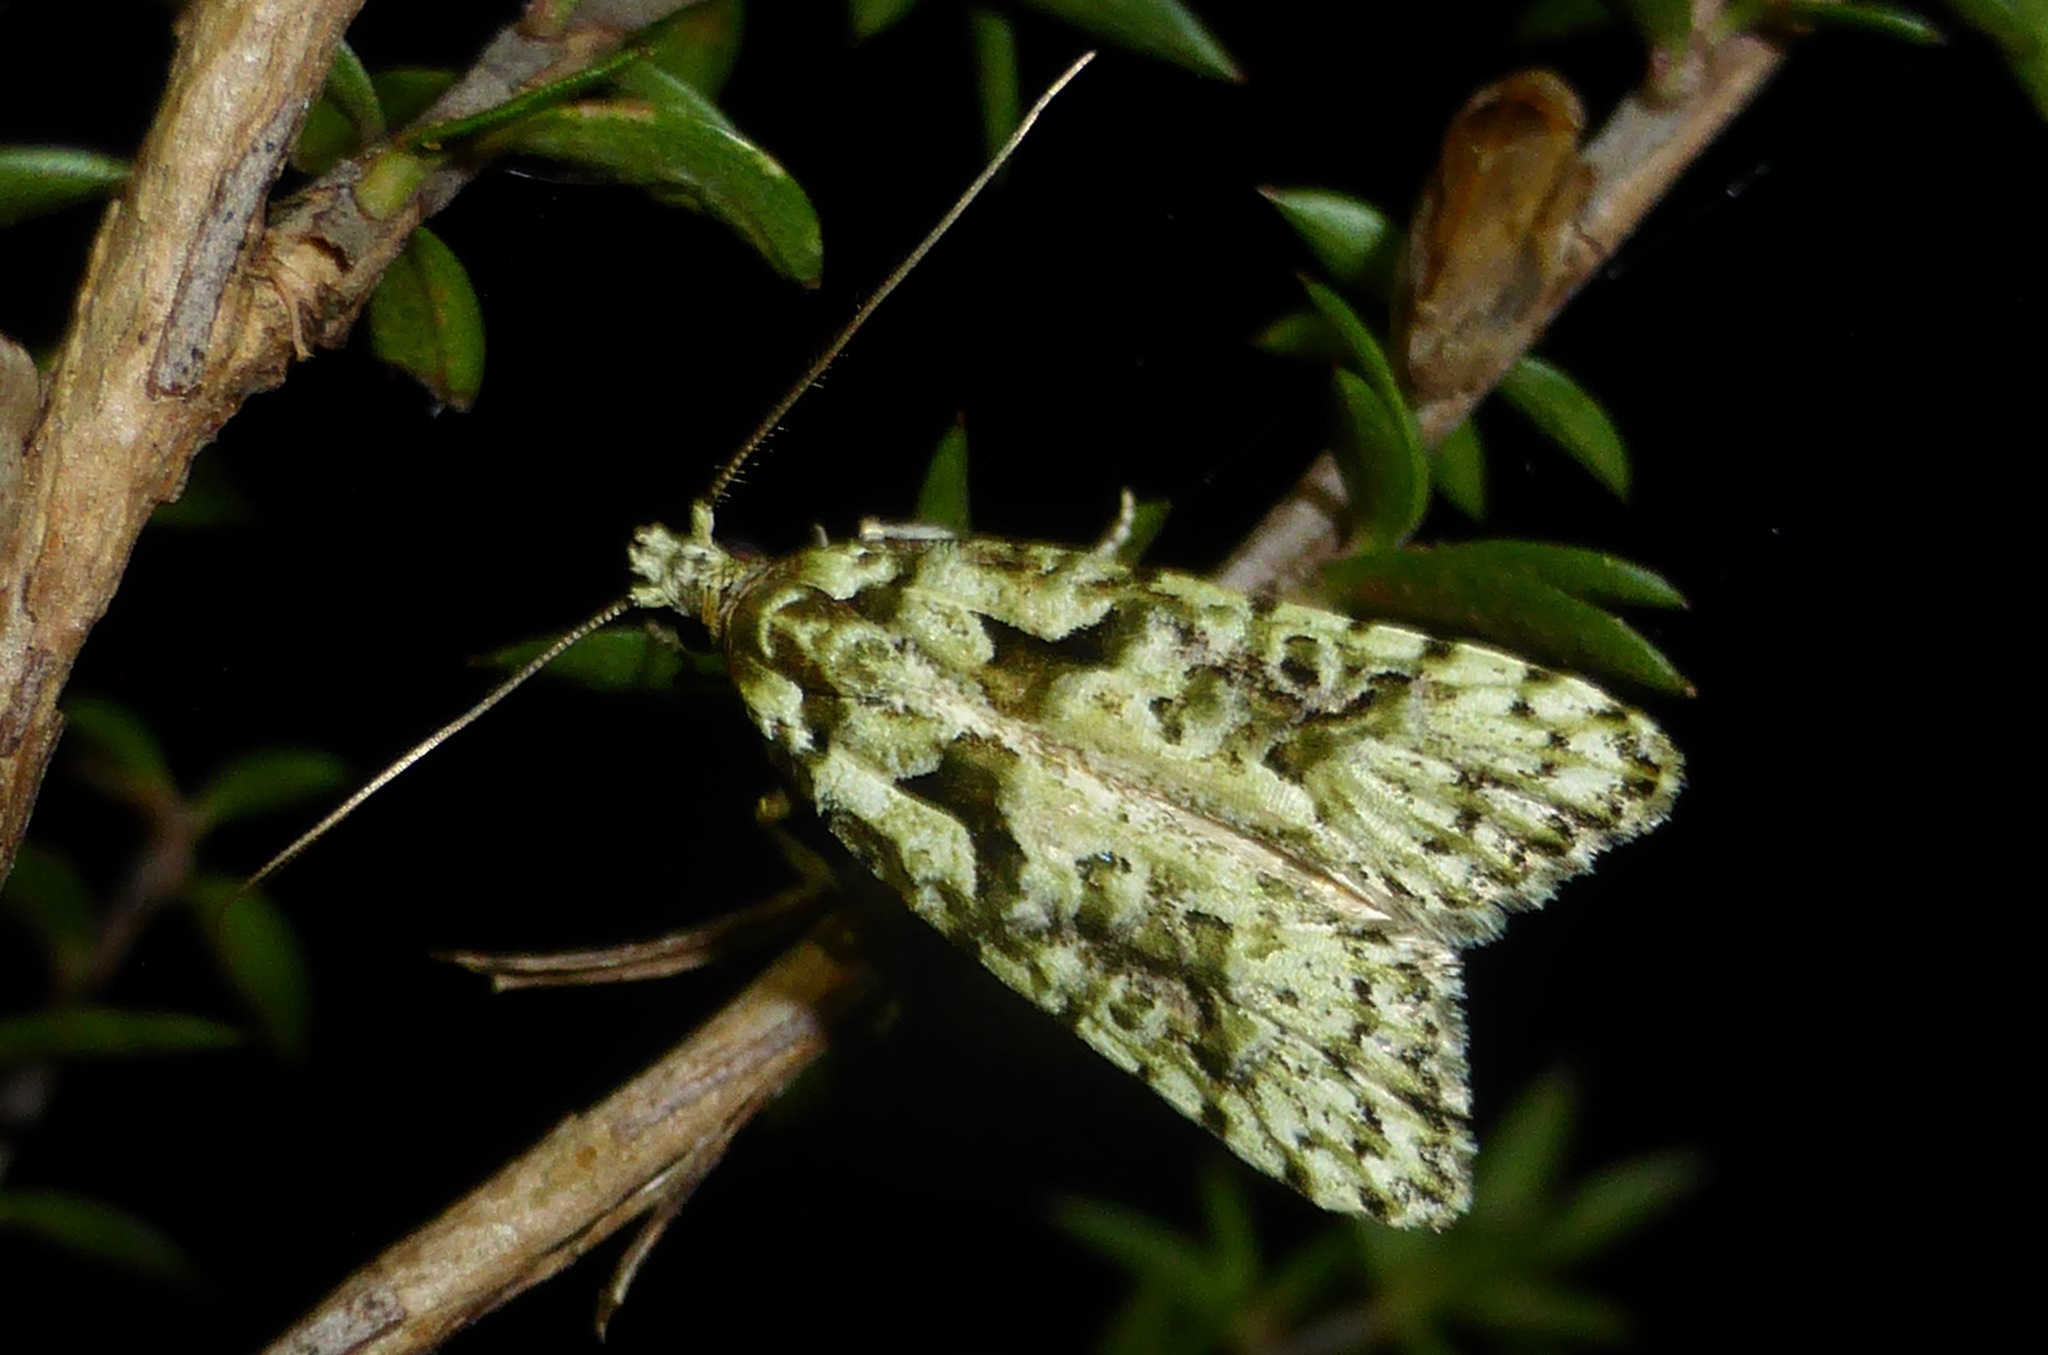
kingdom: Animalia
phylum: Arthropoda
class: Insecta
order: Lepidoptera
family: Carposinidae
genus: Carposina
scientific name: Carposina Heterocrossa eriphylla
